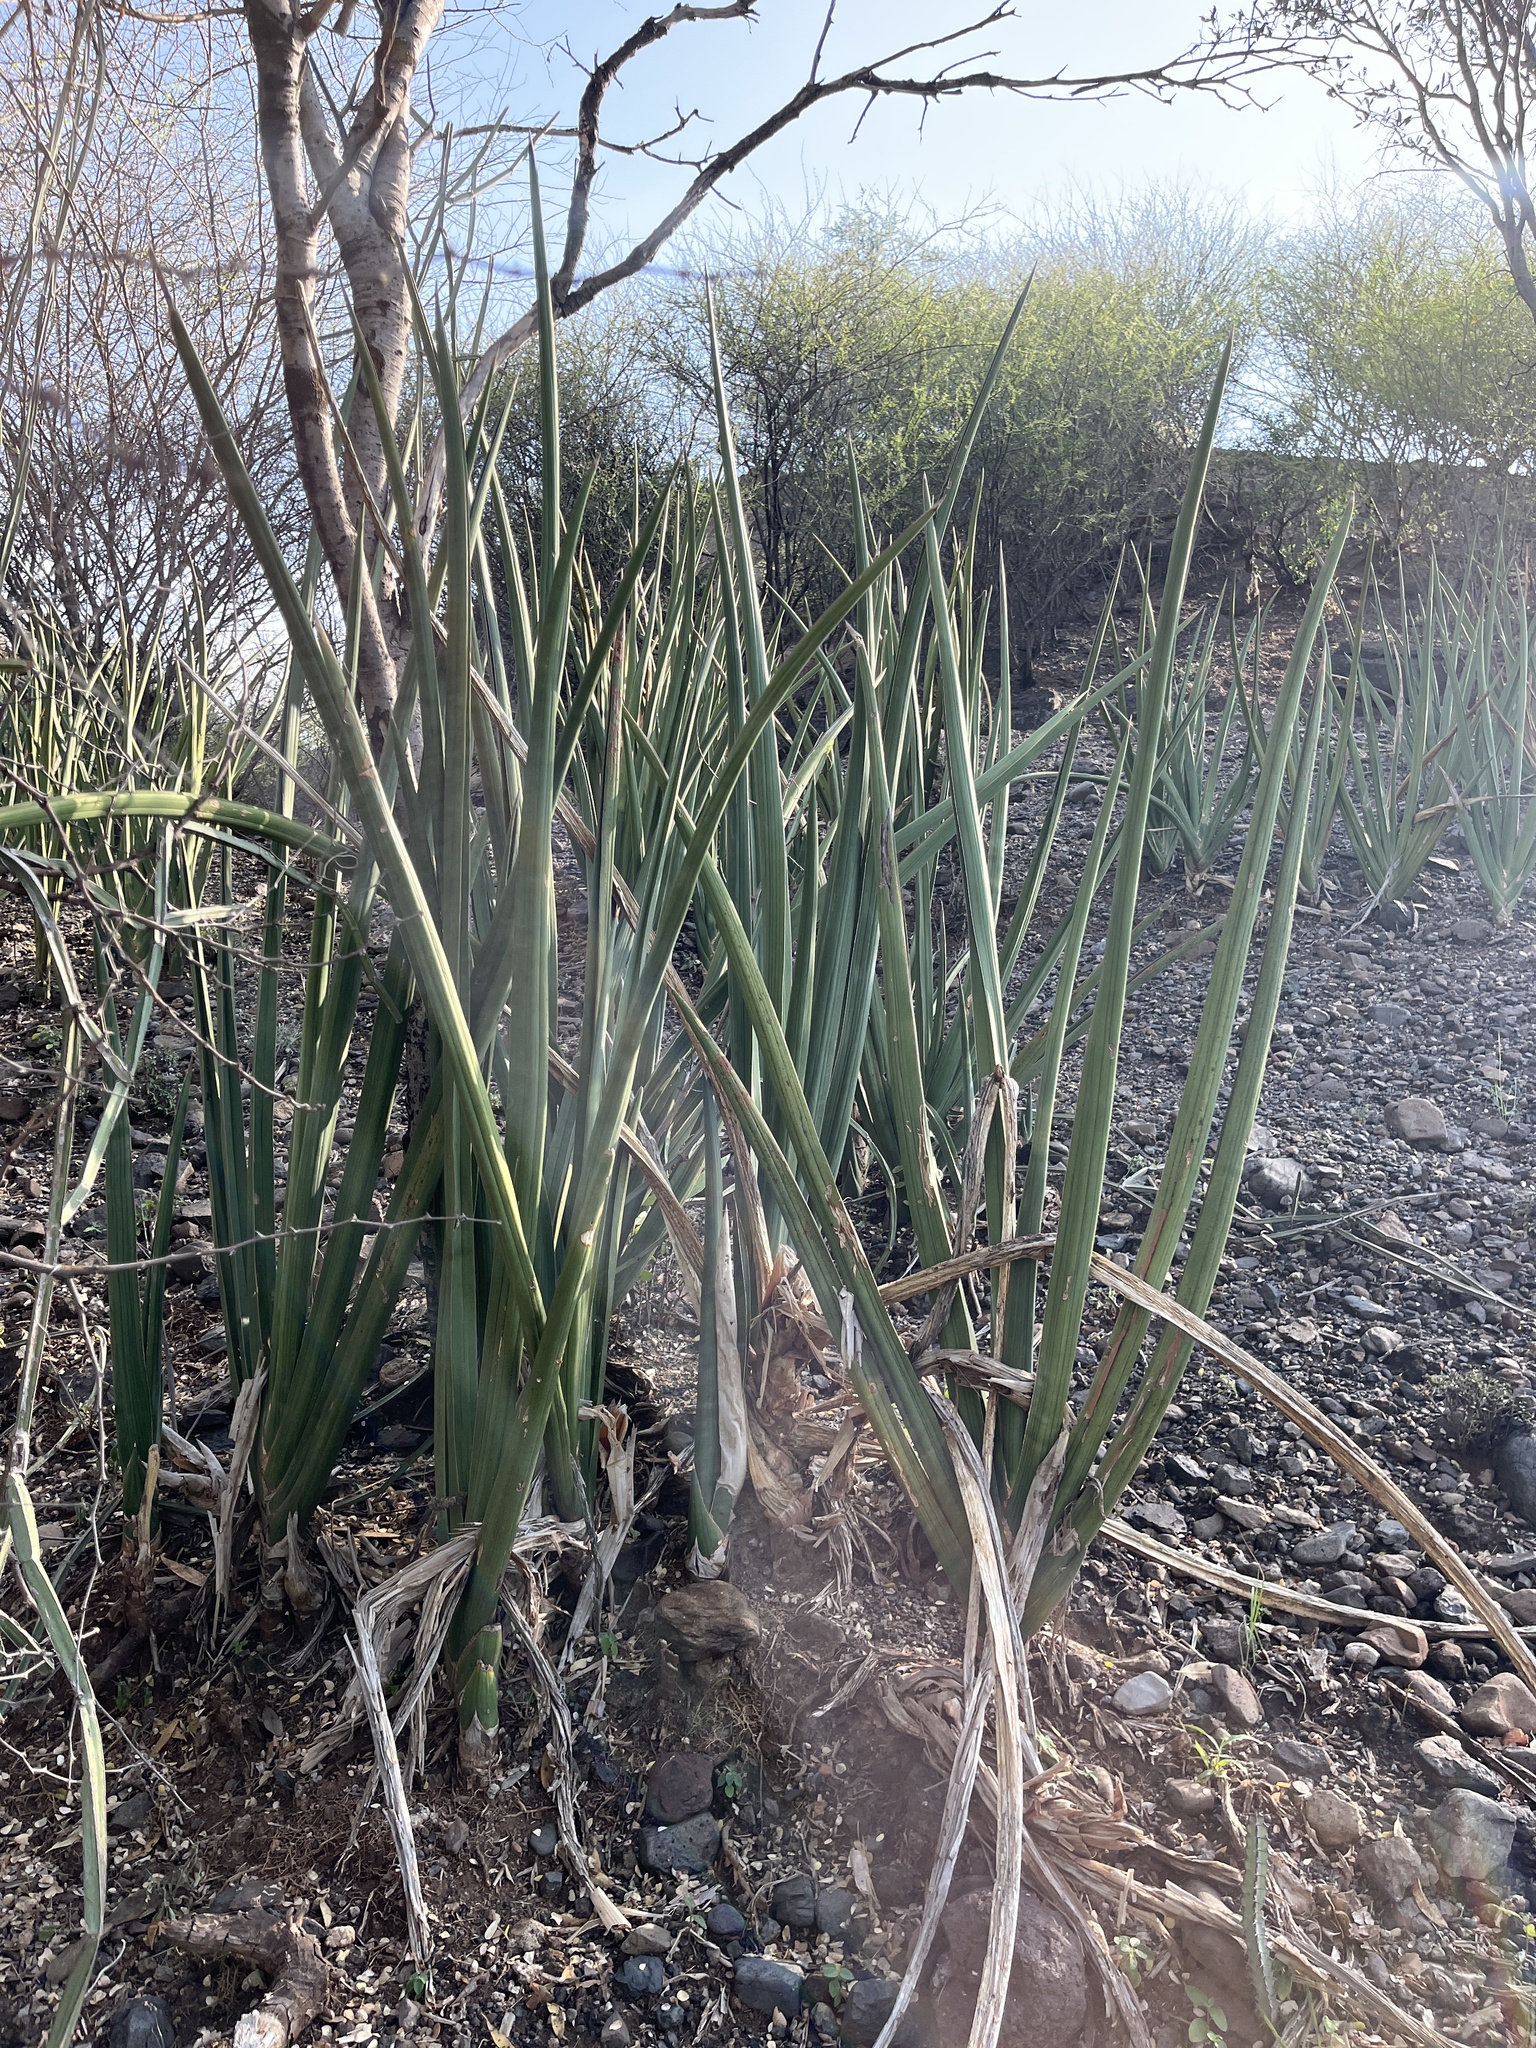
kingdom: Plantae
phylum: Tracheophyta
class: Liliopsida
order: Asparagales
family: Asparagaceae
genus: Dracaena
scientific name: Dracaena angolensis
